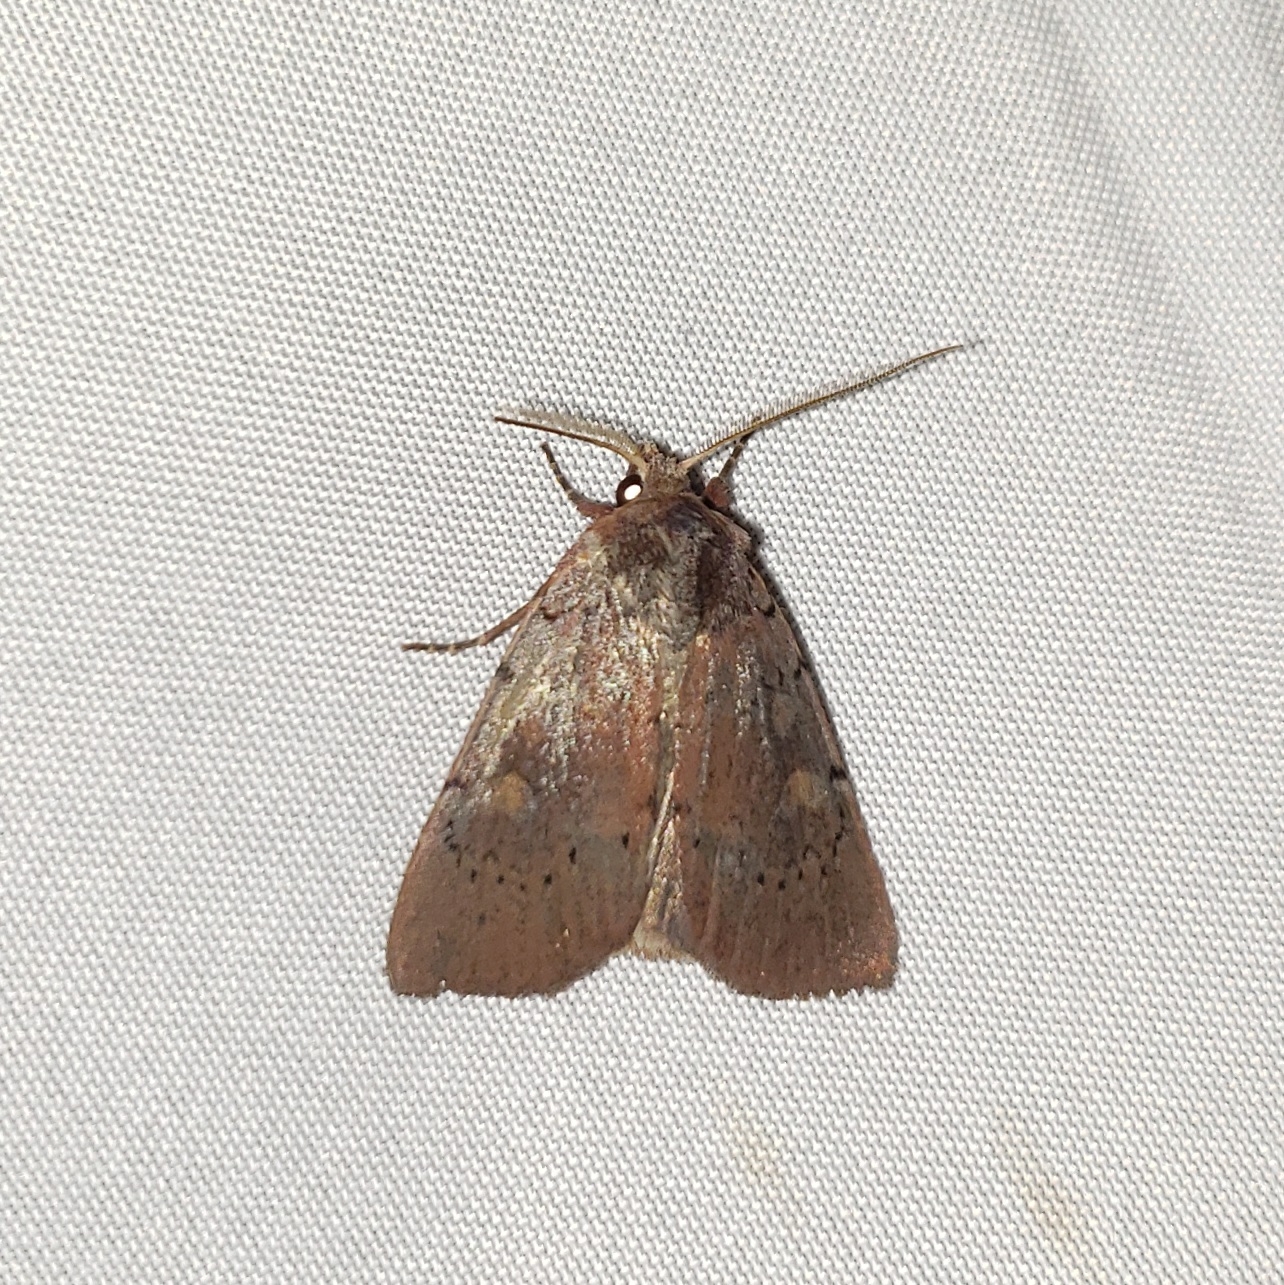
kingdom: Animalia
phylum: Arthropoda
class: Insecta
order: Lepidoptera
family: Noctuidae
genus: Xestia
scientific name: Xestia dilucida
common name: Dull reddish dart
